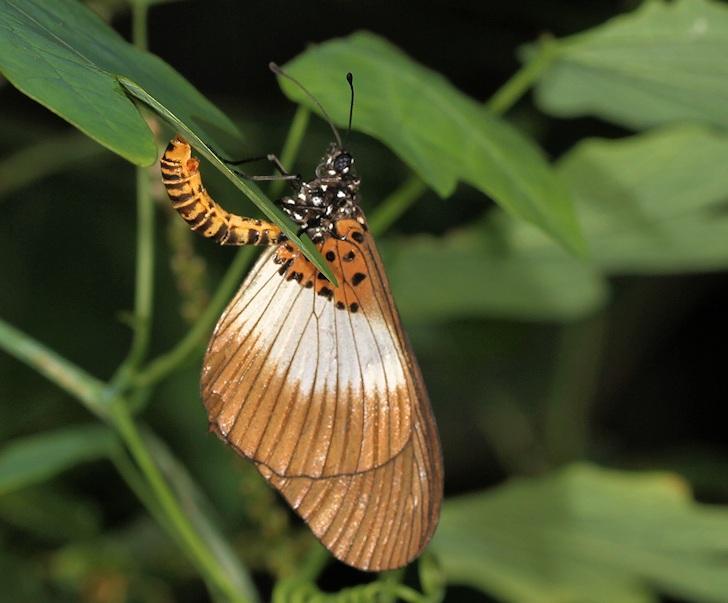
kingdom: Animalia
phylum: Arthropoda
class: Insecta
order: Lepidoptera
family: Nymphalidae
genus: Acraea
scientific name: Acraea Bematistes aganice
